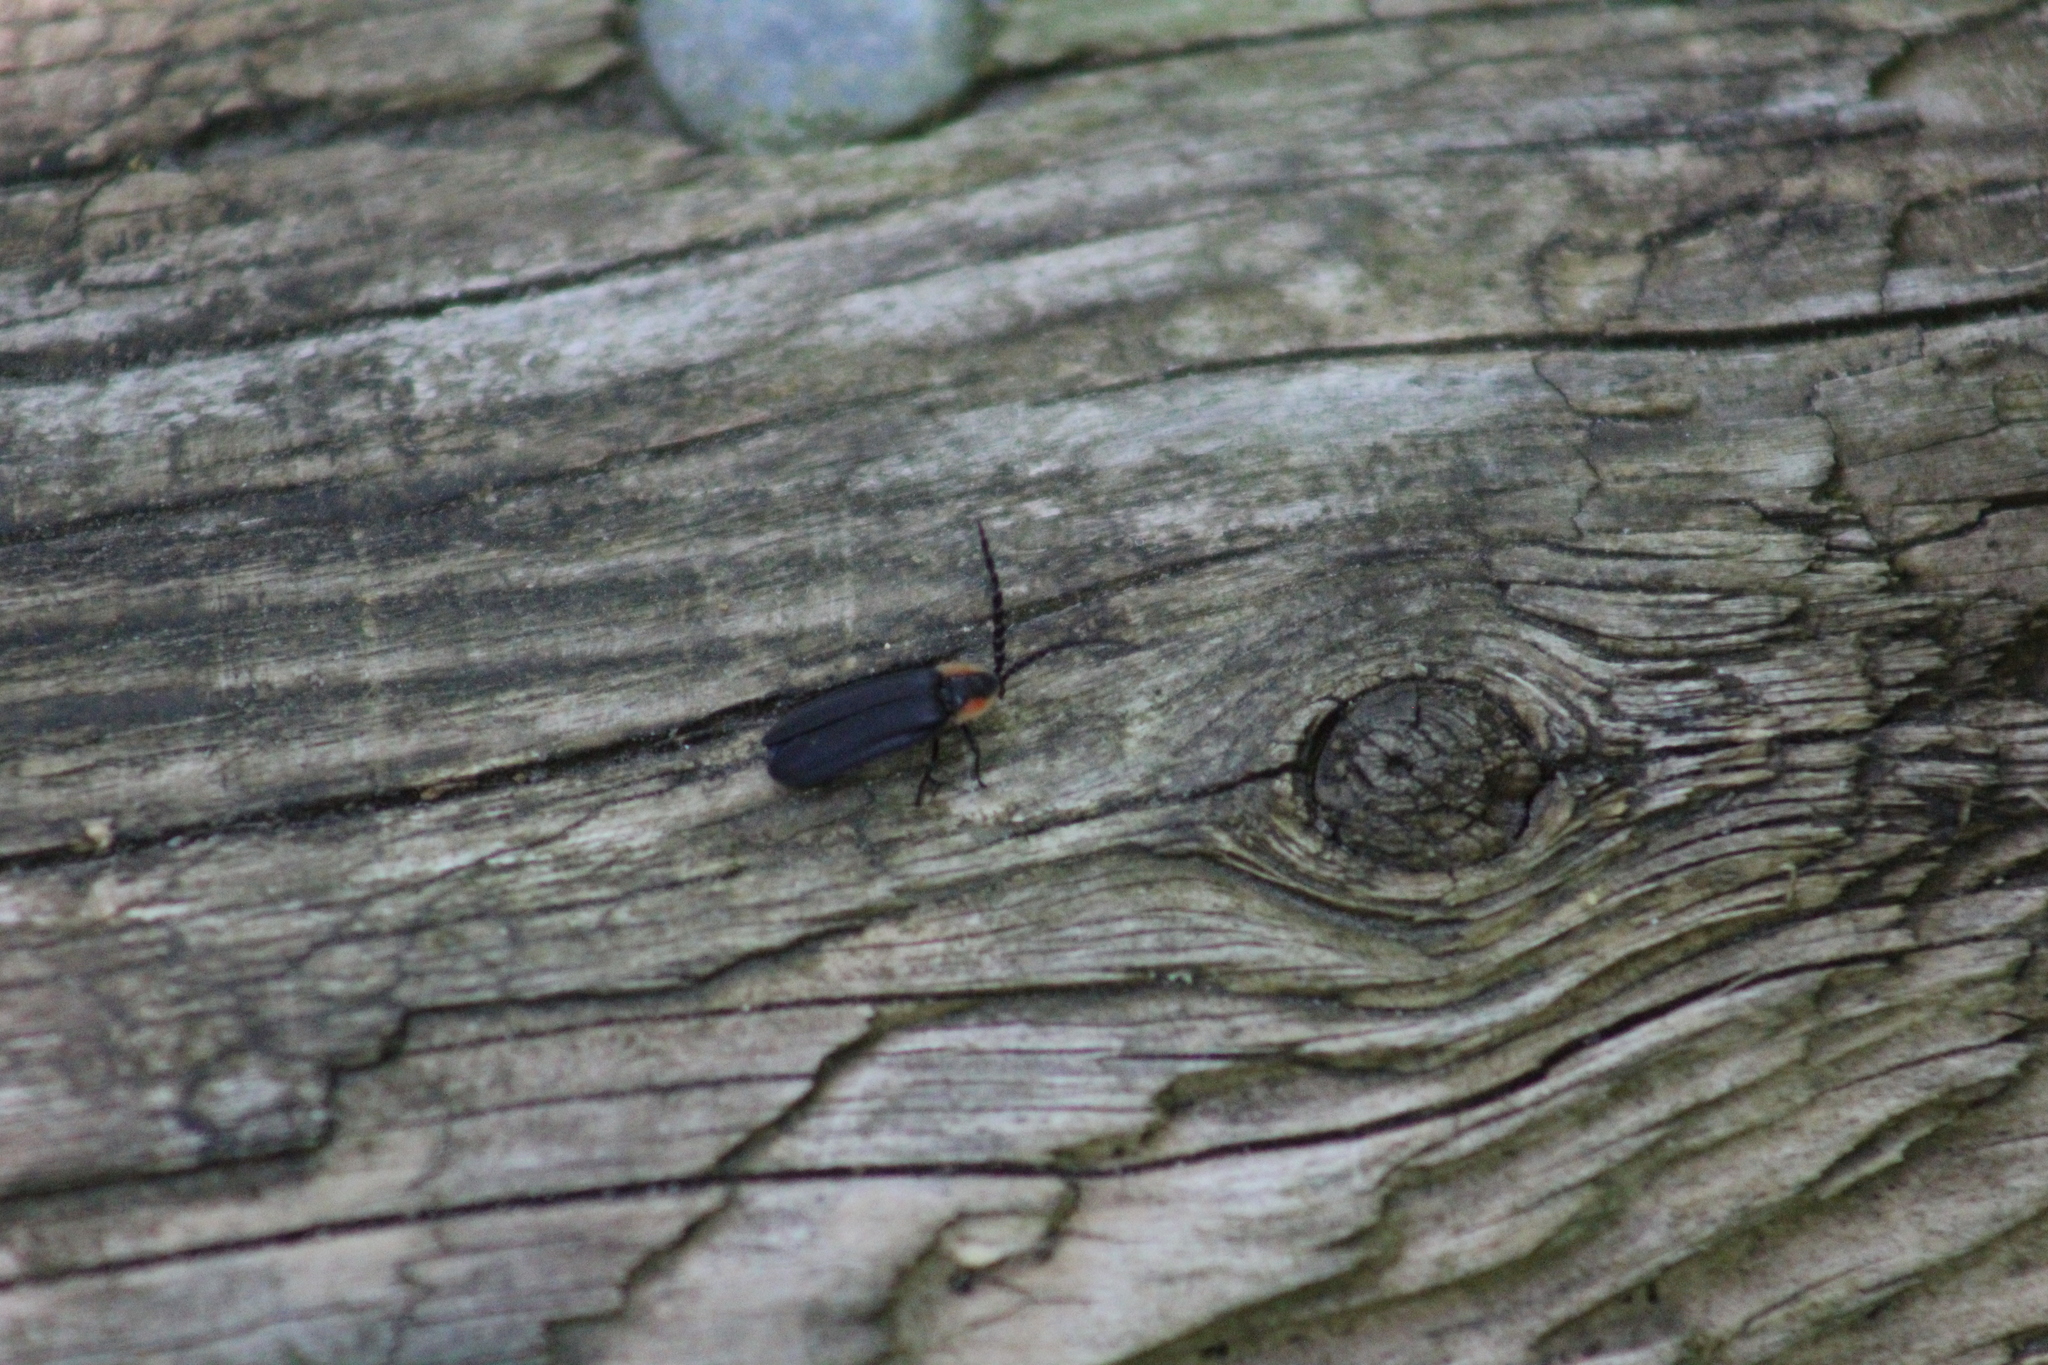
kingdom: Animalia
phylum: Arthropoda
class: Insecta
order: Coleoptera
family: Lampyridae
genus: Lucidota
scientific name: Lucidota atra
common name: Black firefly
